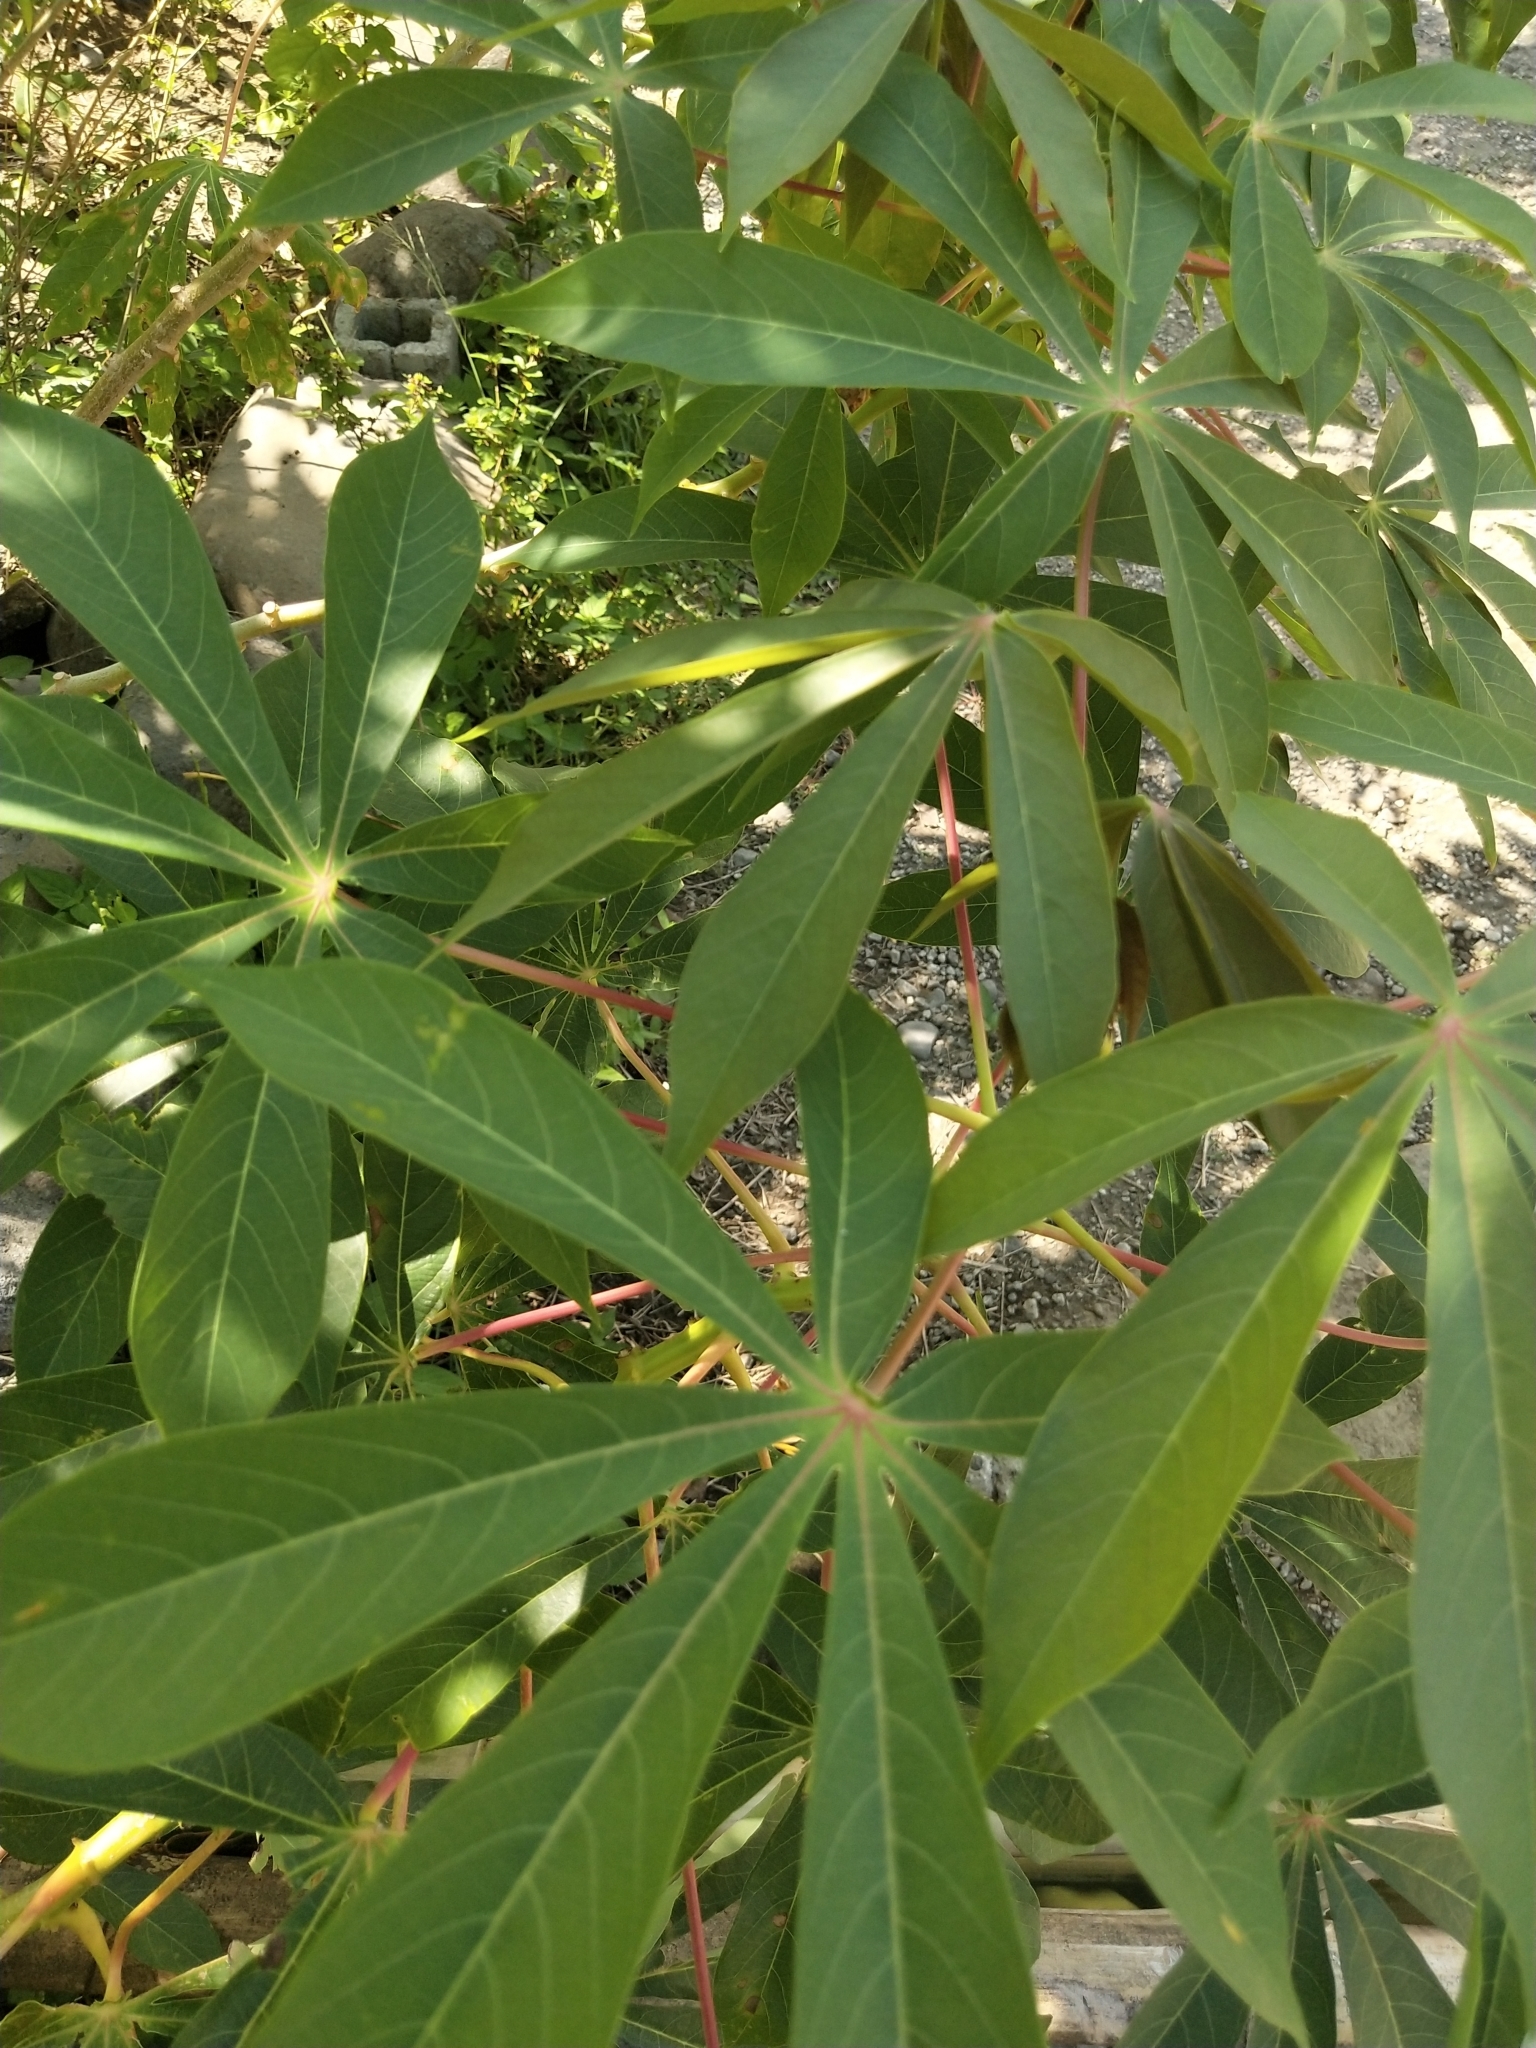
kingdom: Plantae
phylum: Tracheophyta
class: Magnoliopsida
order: Malpighiales
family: Euphorbiaceae
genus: Manihot
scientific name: Manihot esculenta
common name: Cassava
